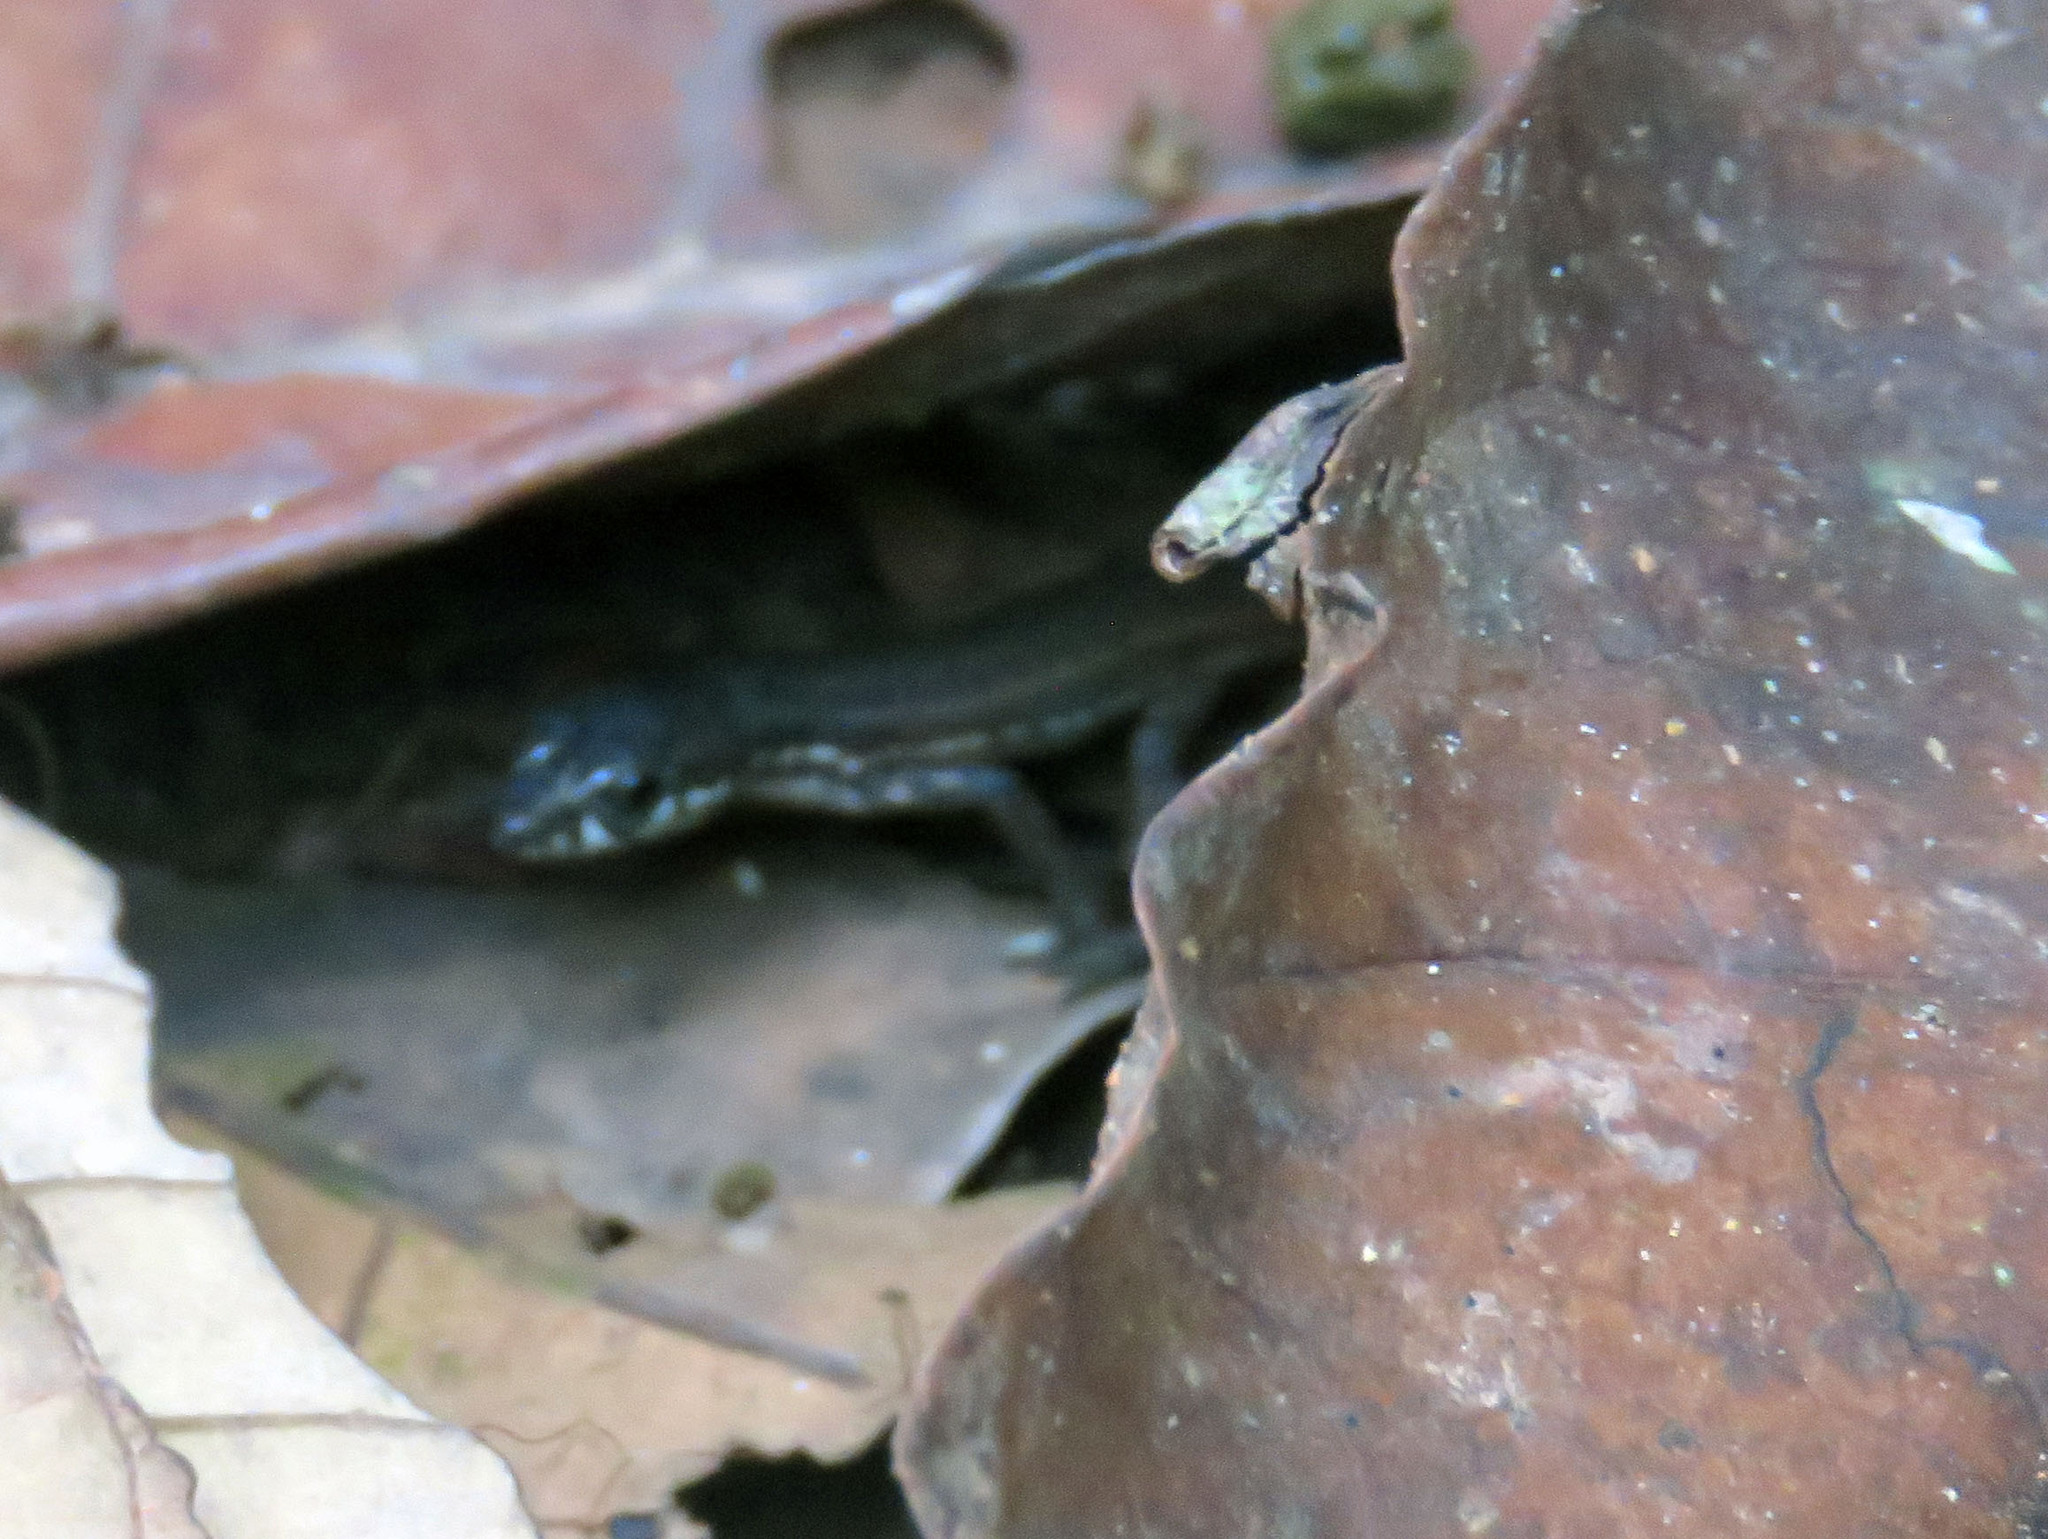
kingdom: Animalia
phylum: Chordata
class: Squamata
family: Gymnophthalmidae
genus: Cercosaura
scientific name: Cercosaura eigenmanni
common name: Eigenmann's cercosaura
